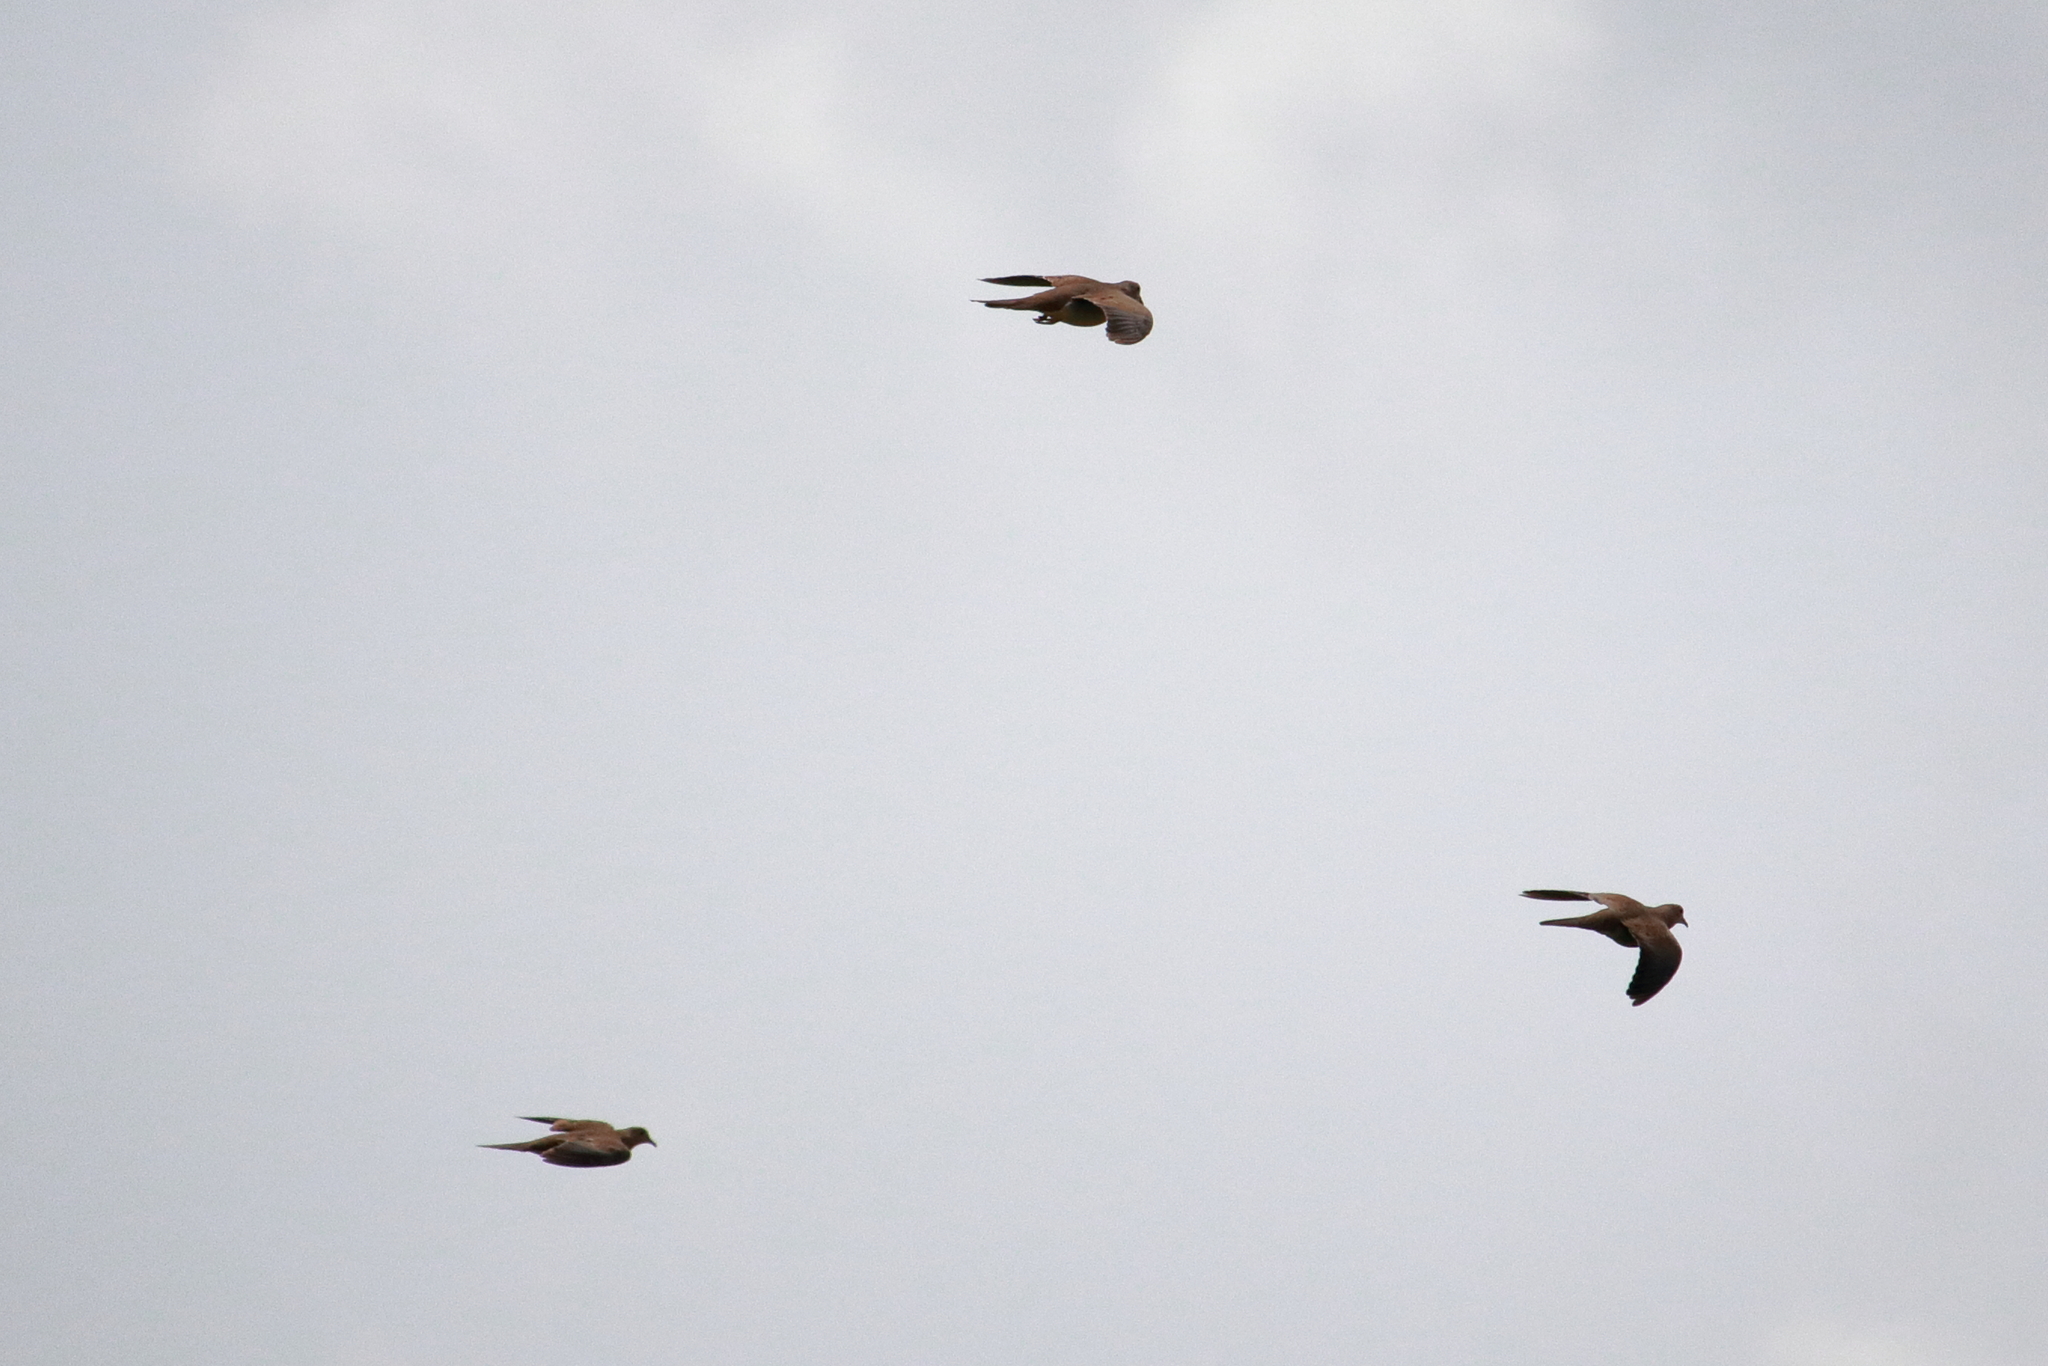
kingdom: Animalia
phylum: Chordata
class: Aves
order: Columbiformes
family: Columbidae
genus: Zenaida
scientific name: Zenaida macroura
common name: Mourning dove
